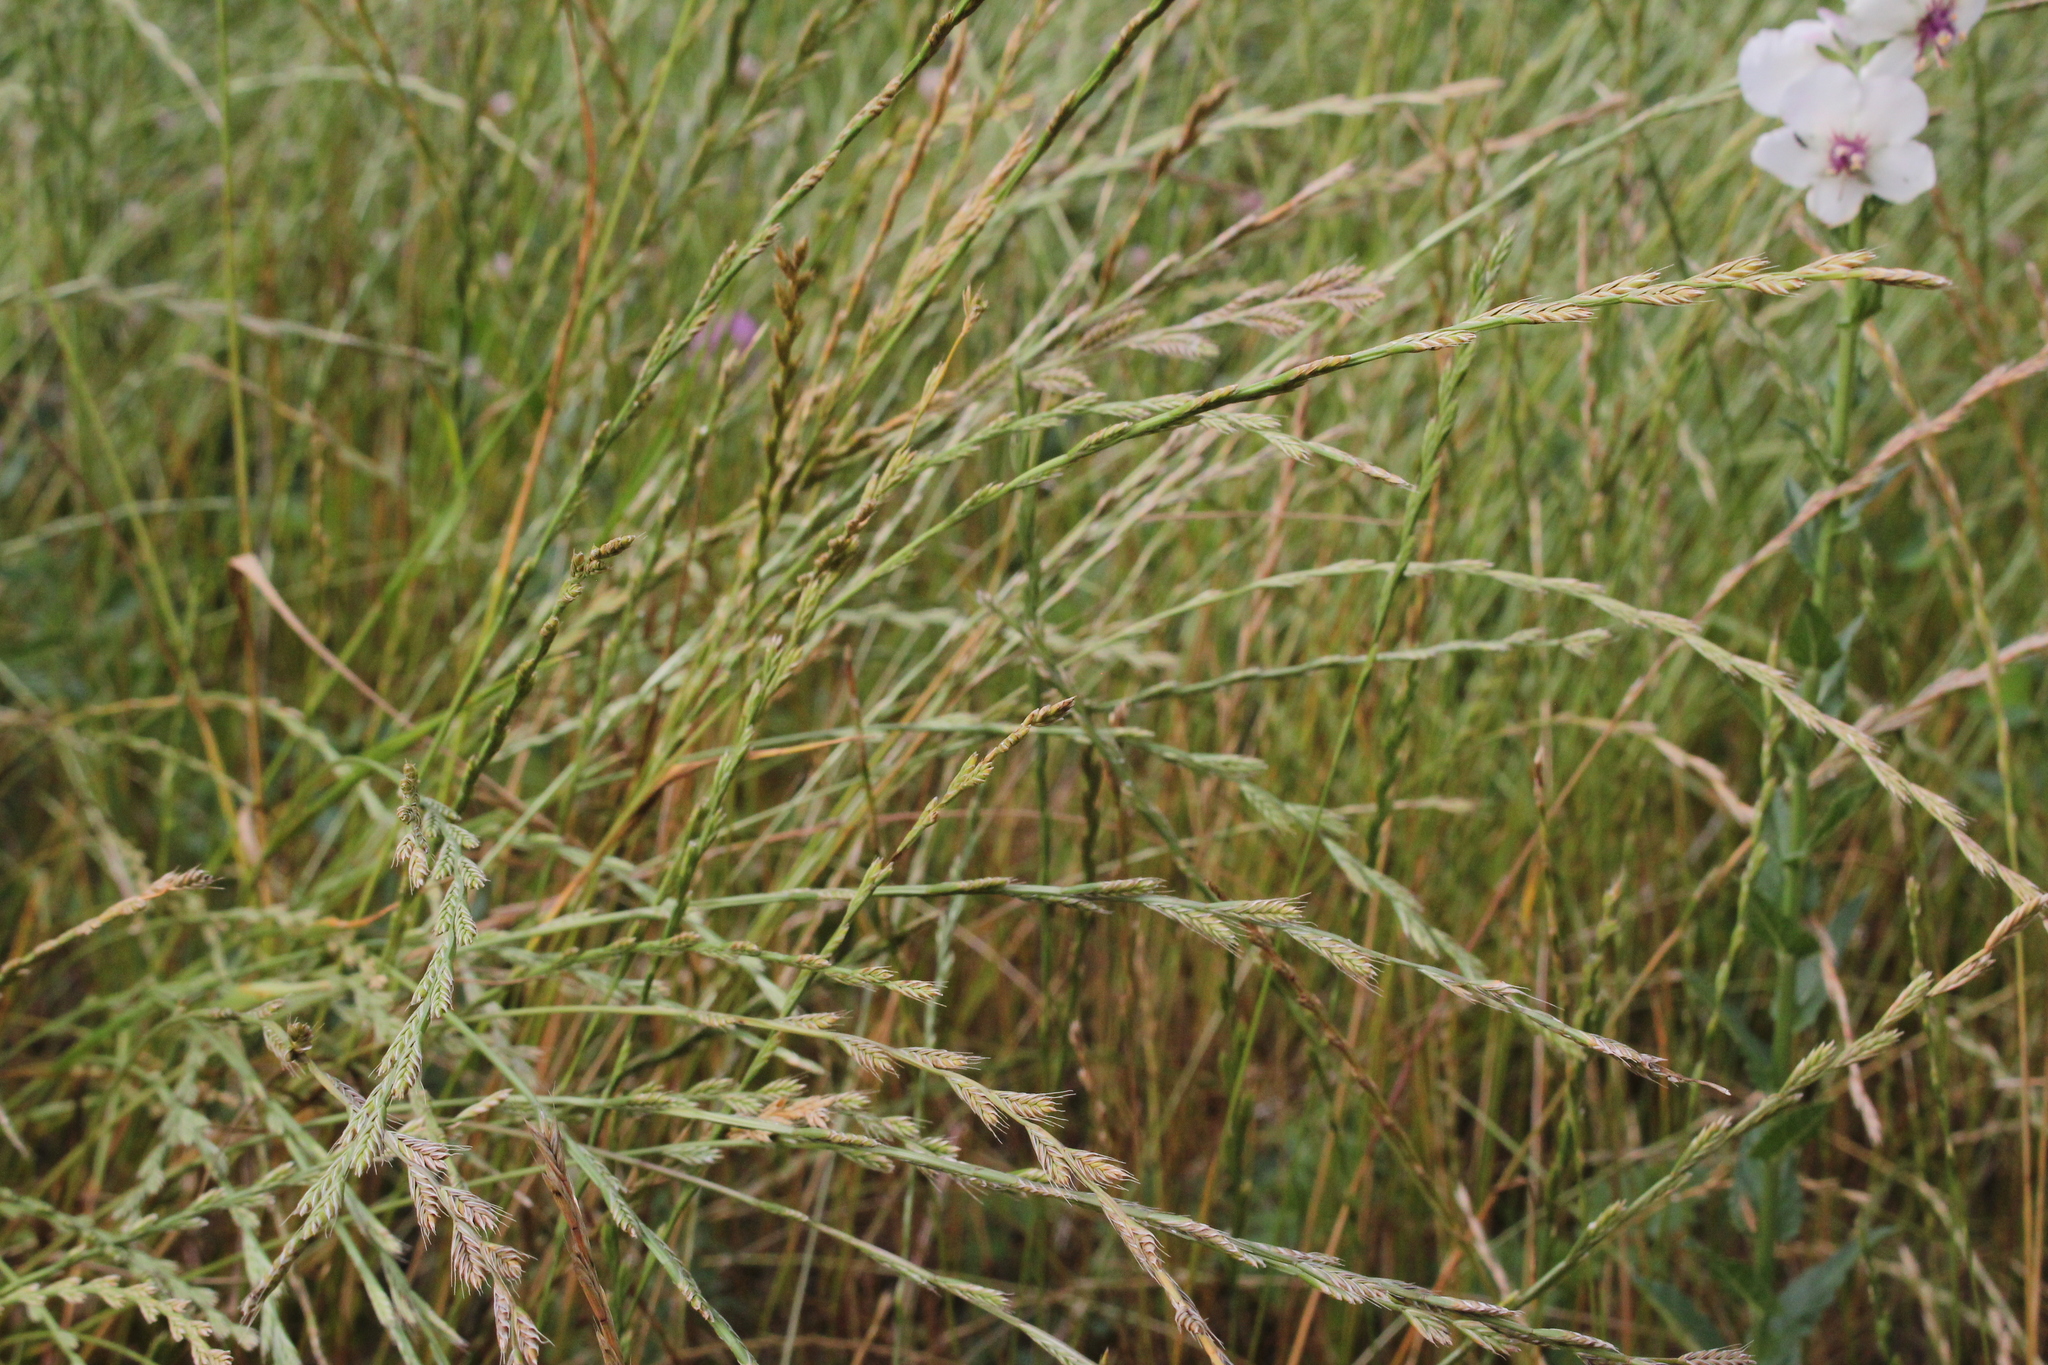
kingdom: Plantae
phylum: Tracheophyta
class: Liliopsida
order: Poales
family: Poaceae
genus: Lolium
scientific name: Lolium multiflorum
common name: Annual ryegrass
